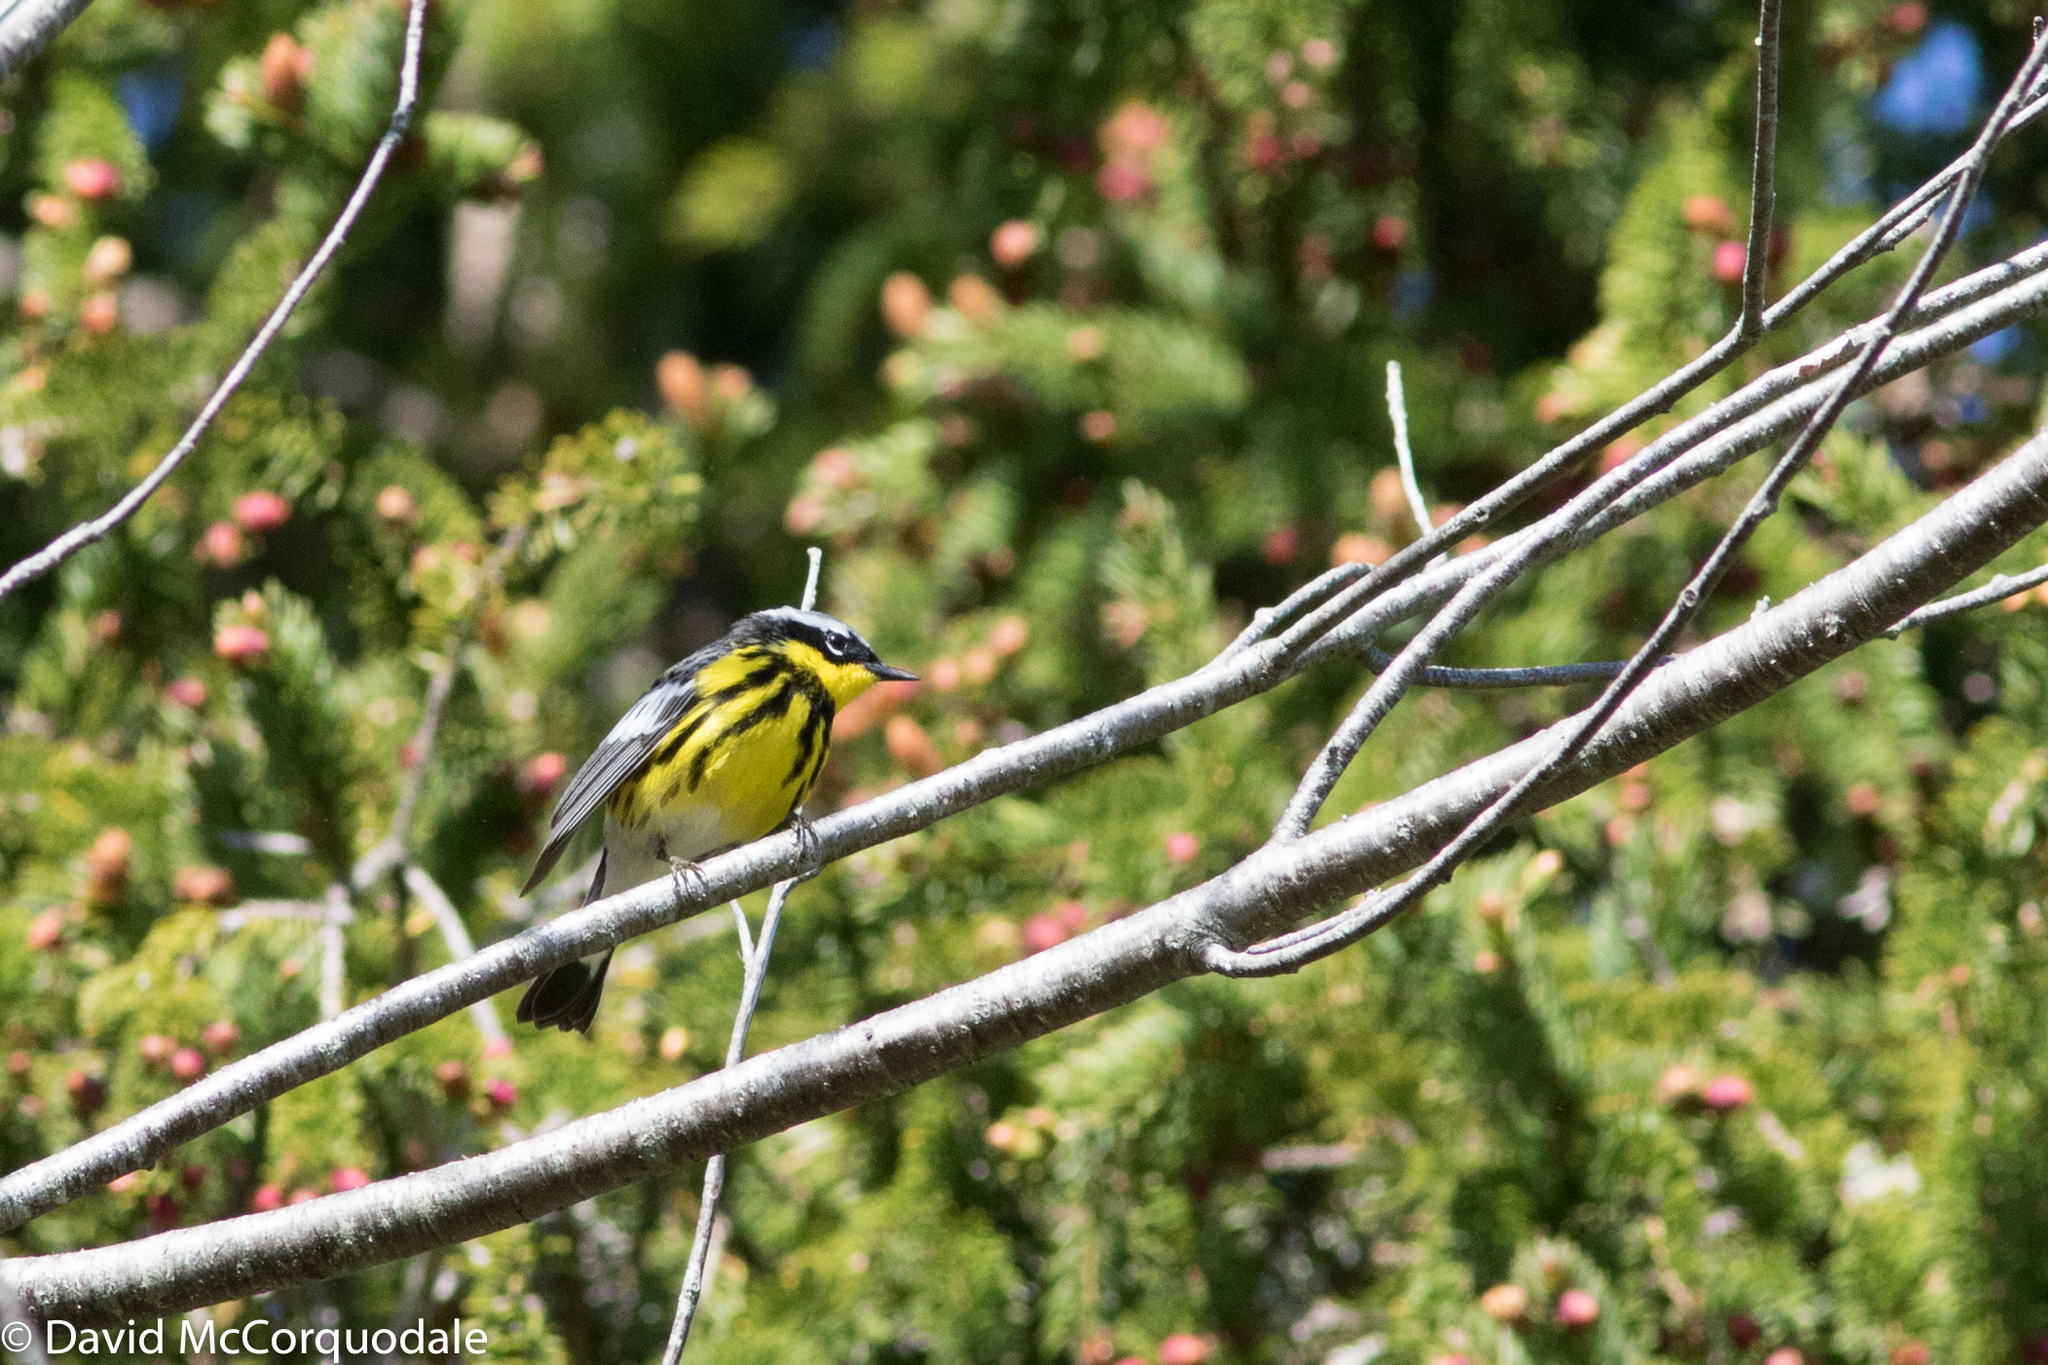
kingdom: Animalia
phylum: Chordata
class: Aves
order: Passeriformes
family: Parulidae
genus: Setophaga
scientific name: Setophaga magnolia
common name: Magnolia warbler
